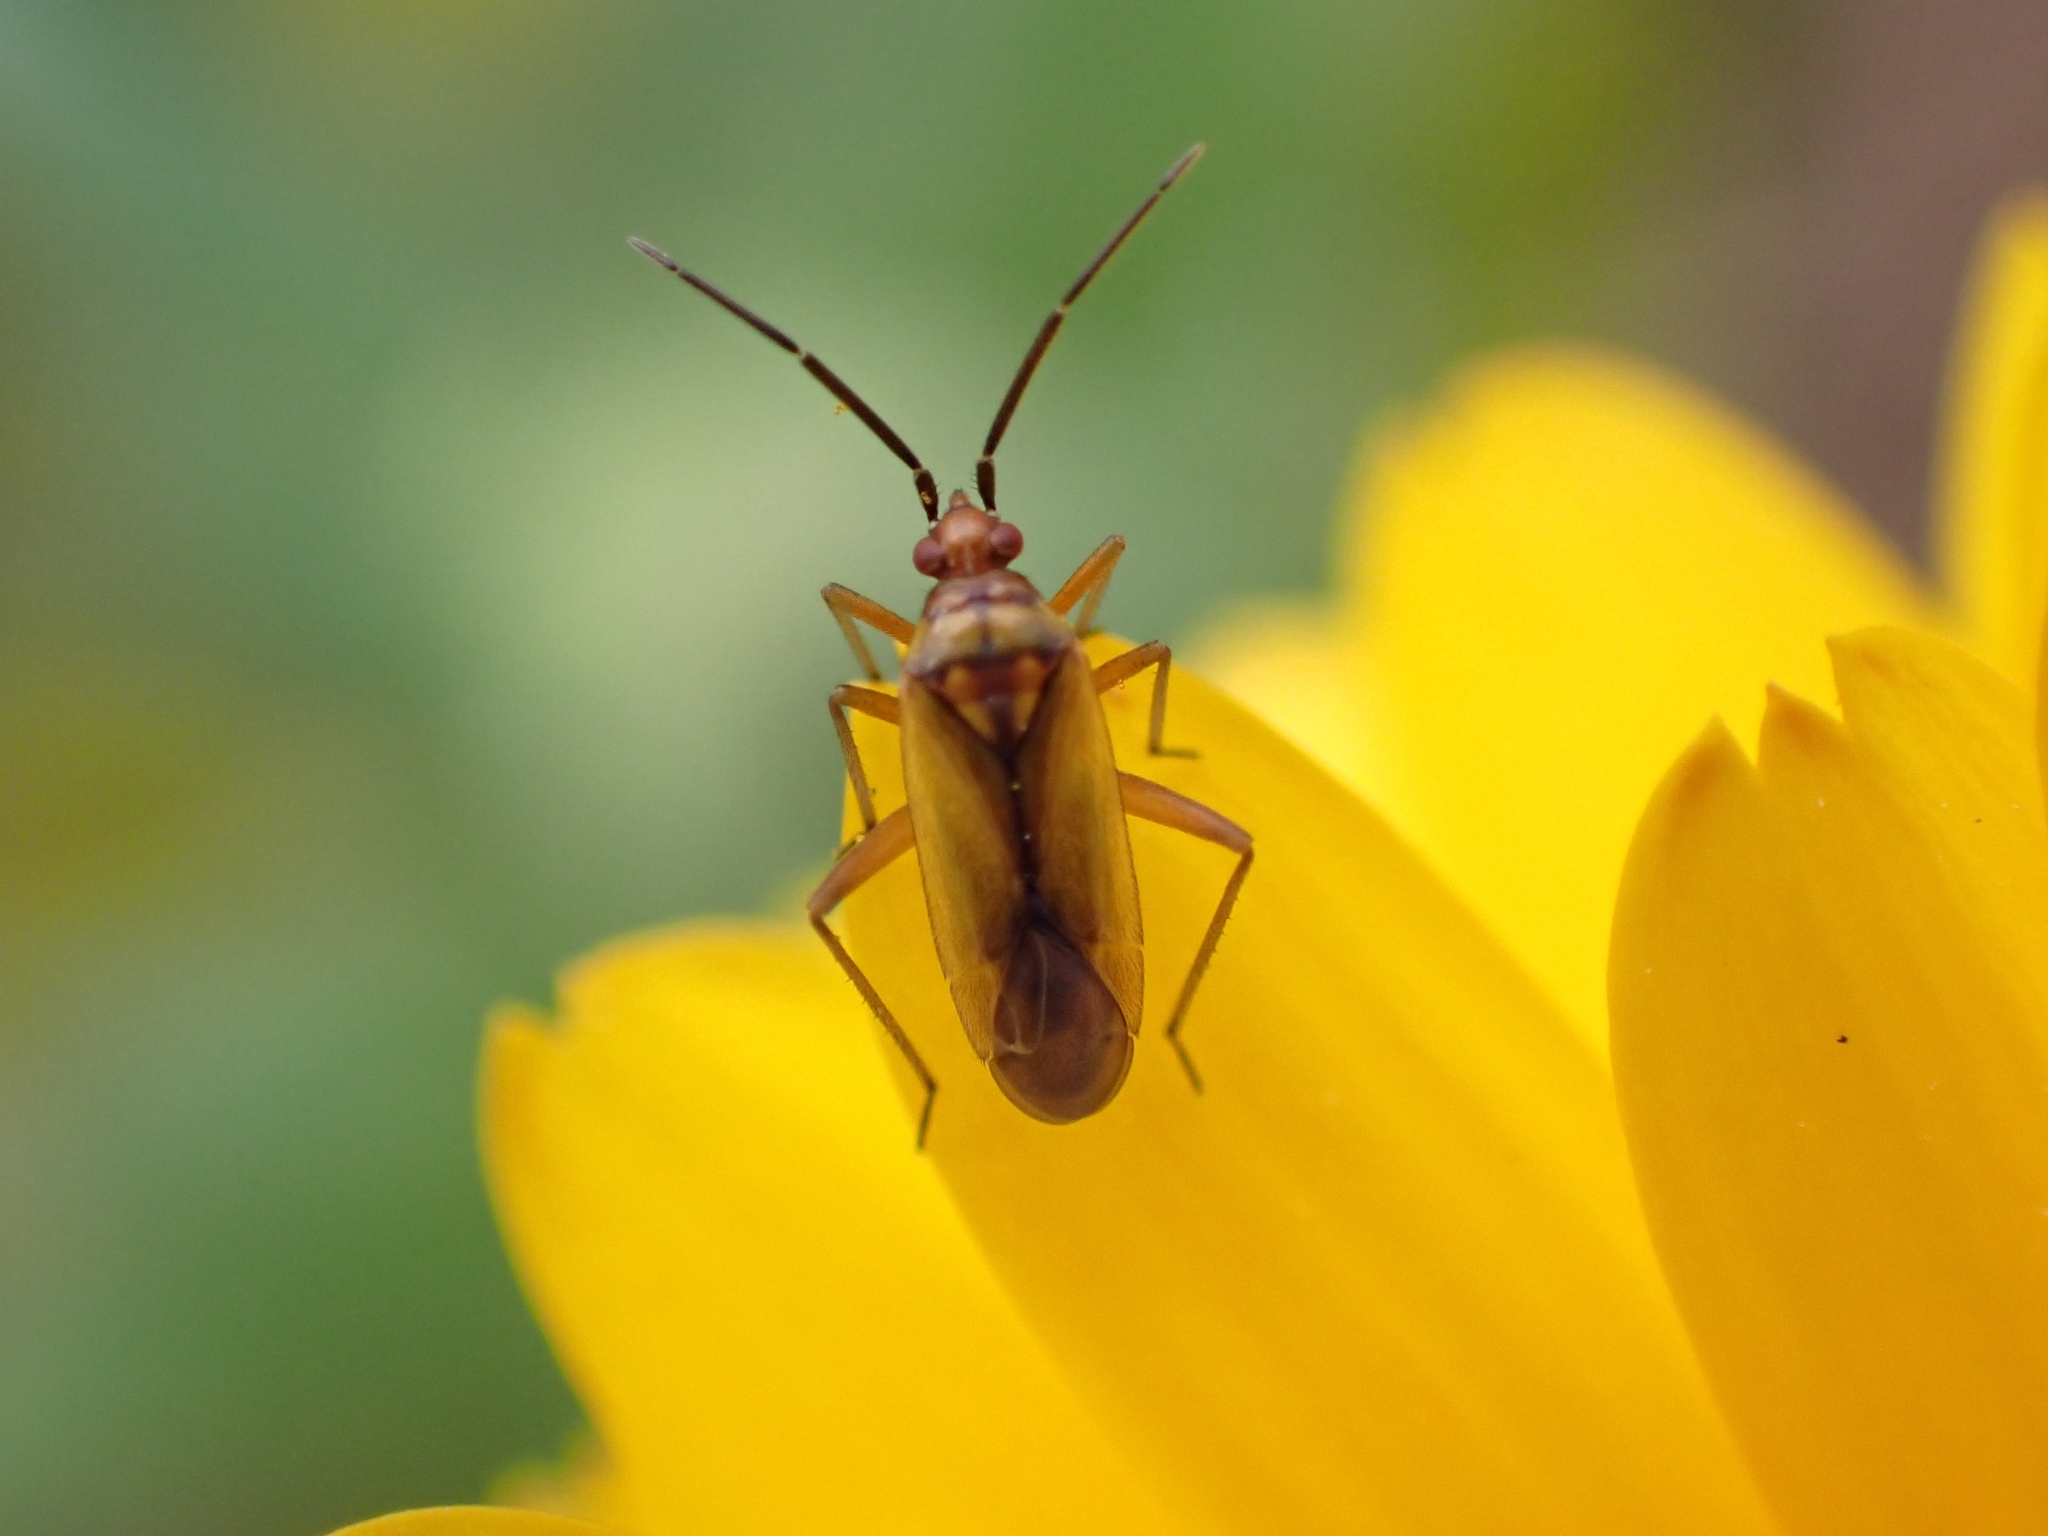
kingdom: Animalia
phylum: Arthropoda
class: Insecta
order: Hemiptera
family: Miridae
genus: Macrotylus
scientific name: Macrotylus nigricornis
